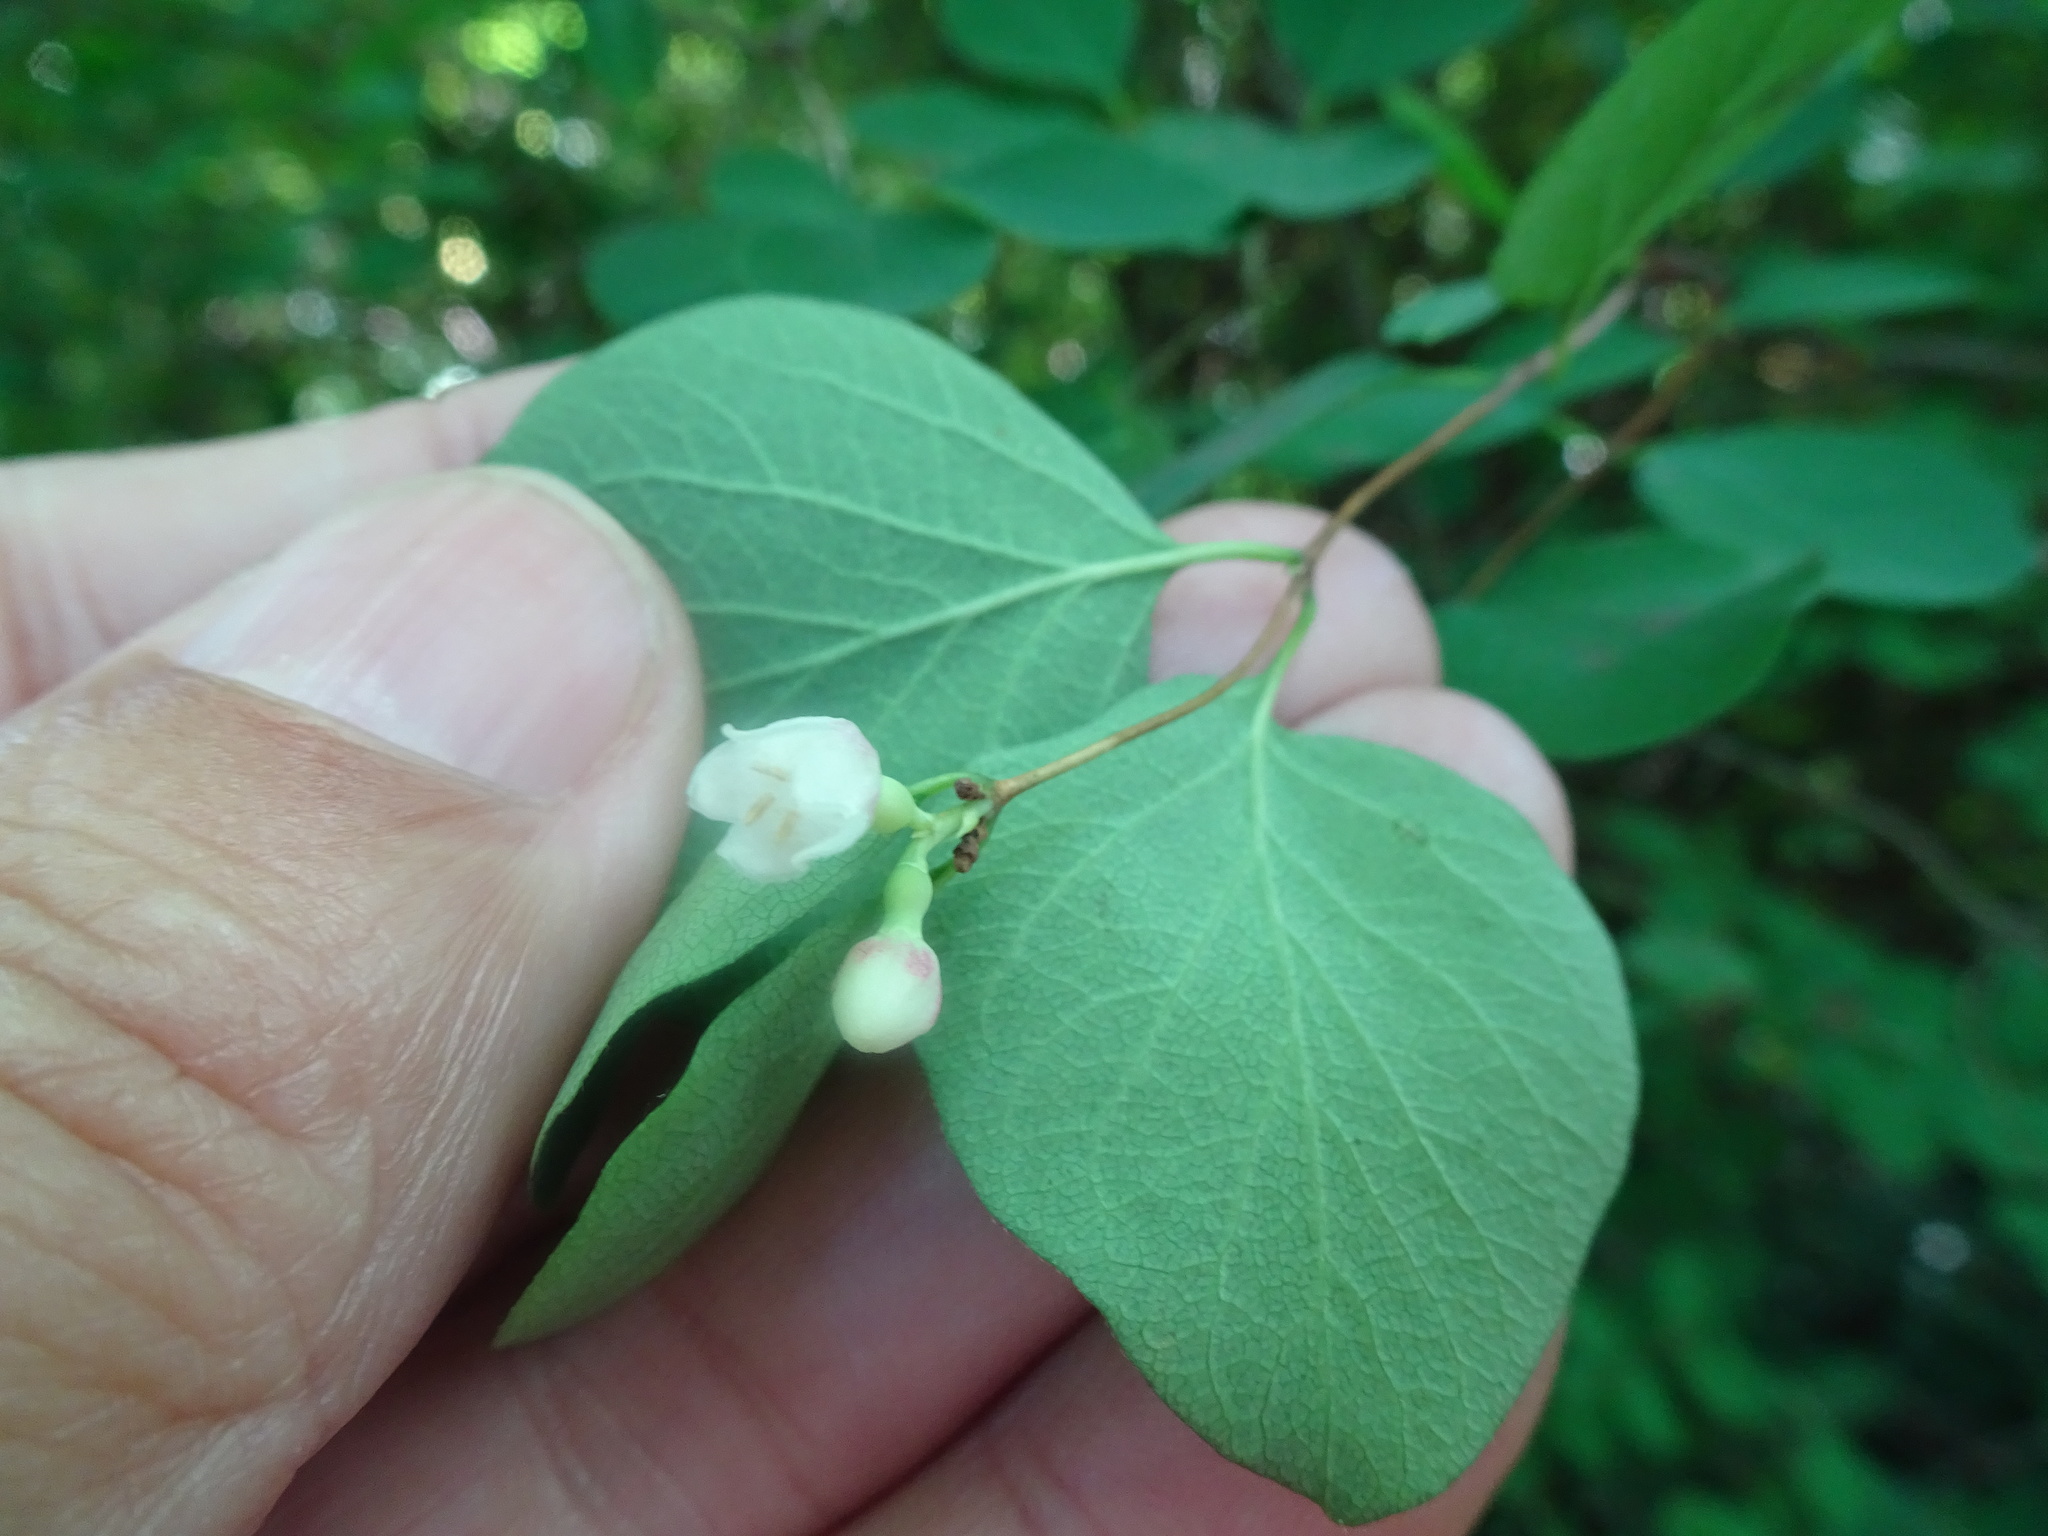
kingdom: Plantae
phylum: Tracheophyta
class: Magnoliopsida
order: Dipsacales
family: Caprifoliaceae
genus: Symphoricarpos
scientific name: Symphoricarpos albus
